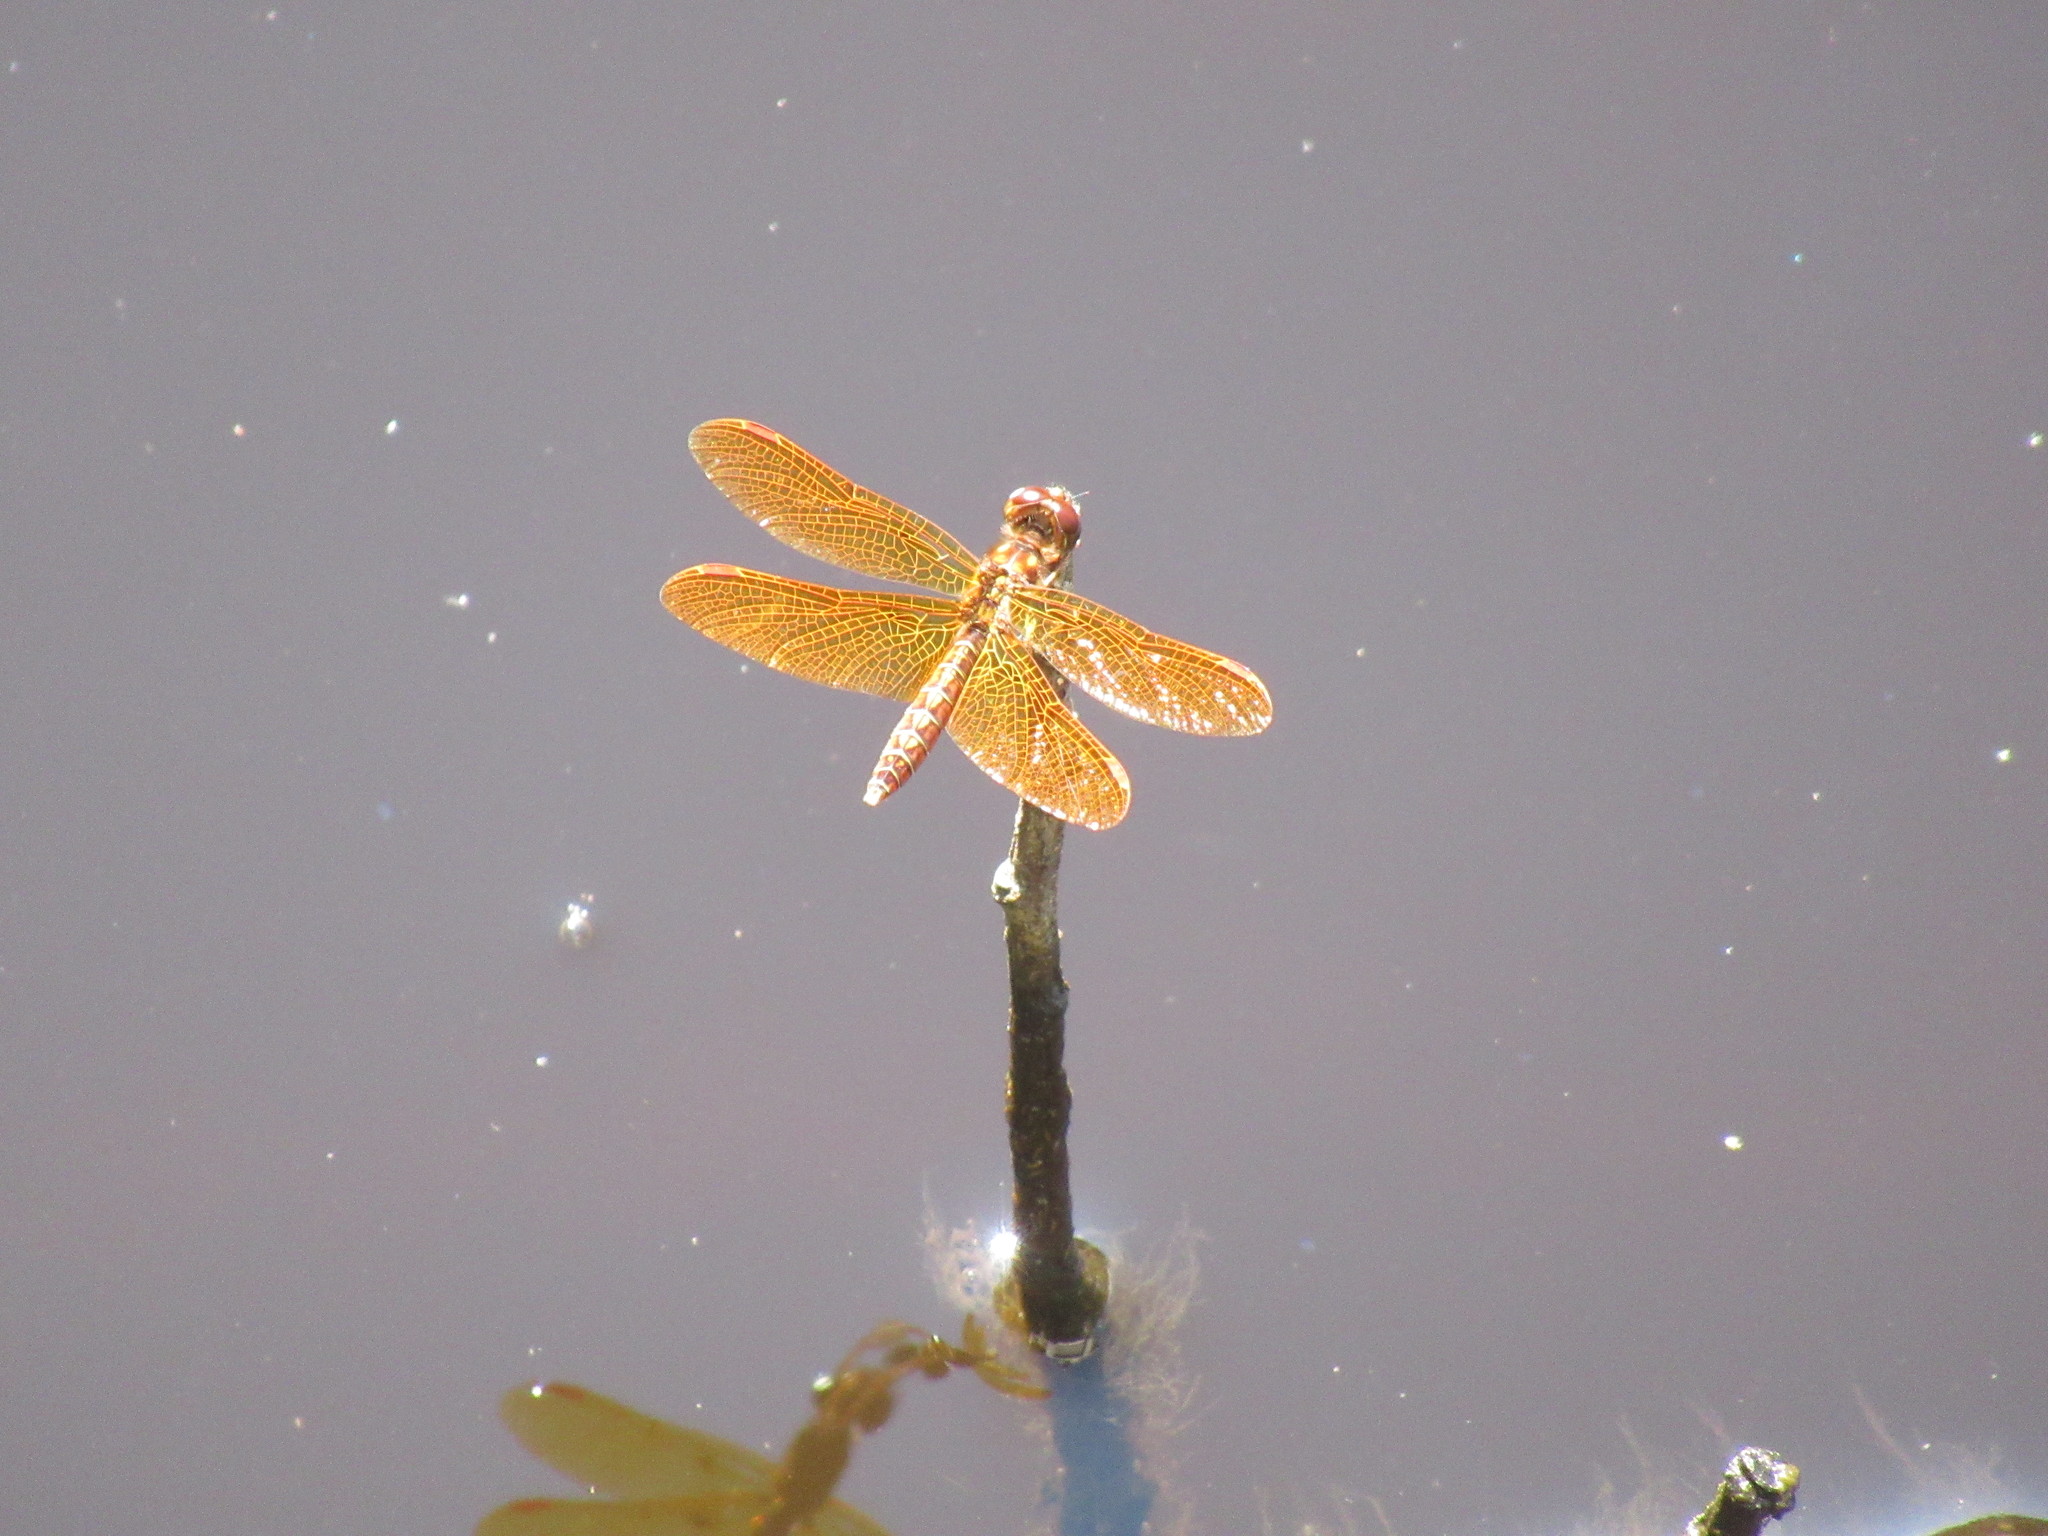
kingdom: Animalia
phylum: Arthropoda
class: Insecta
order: Odonata
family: Libellulidae
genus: Perithemis
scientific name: Perithemis tenera
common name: Eastern amberwing
